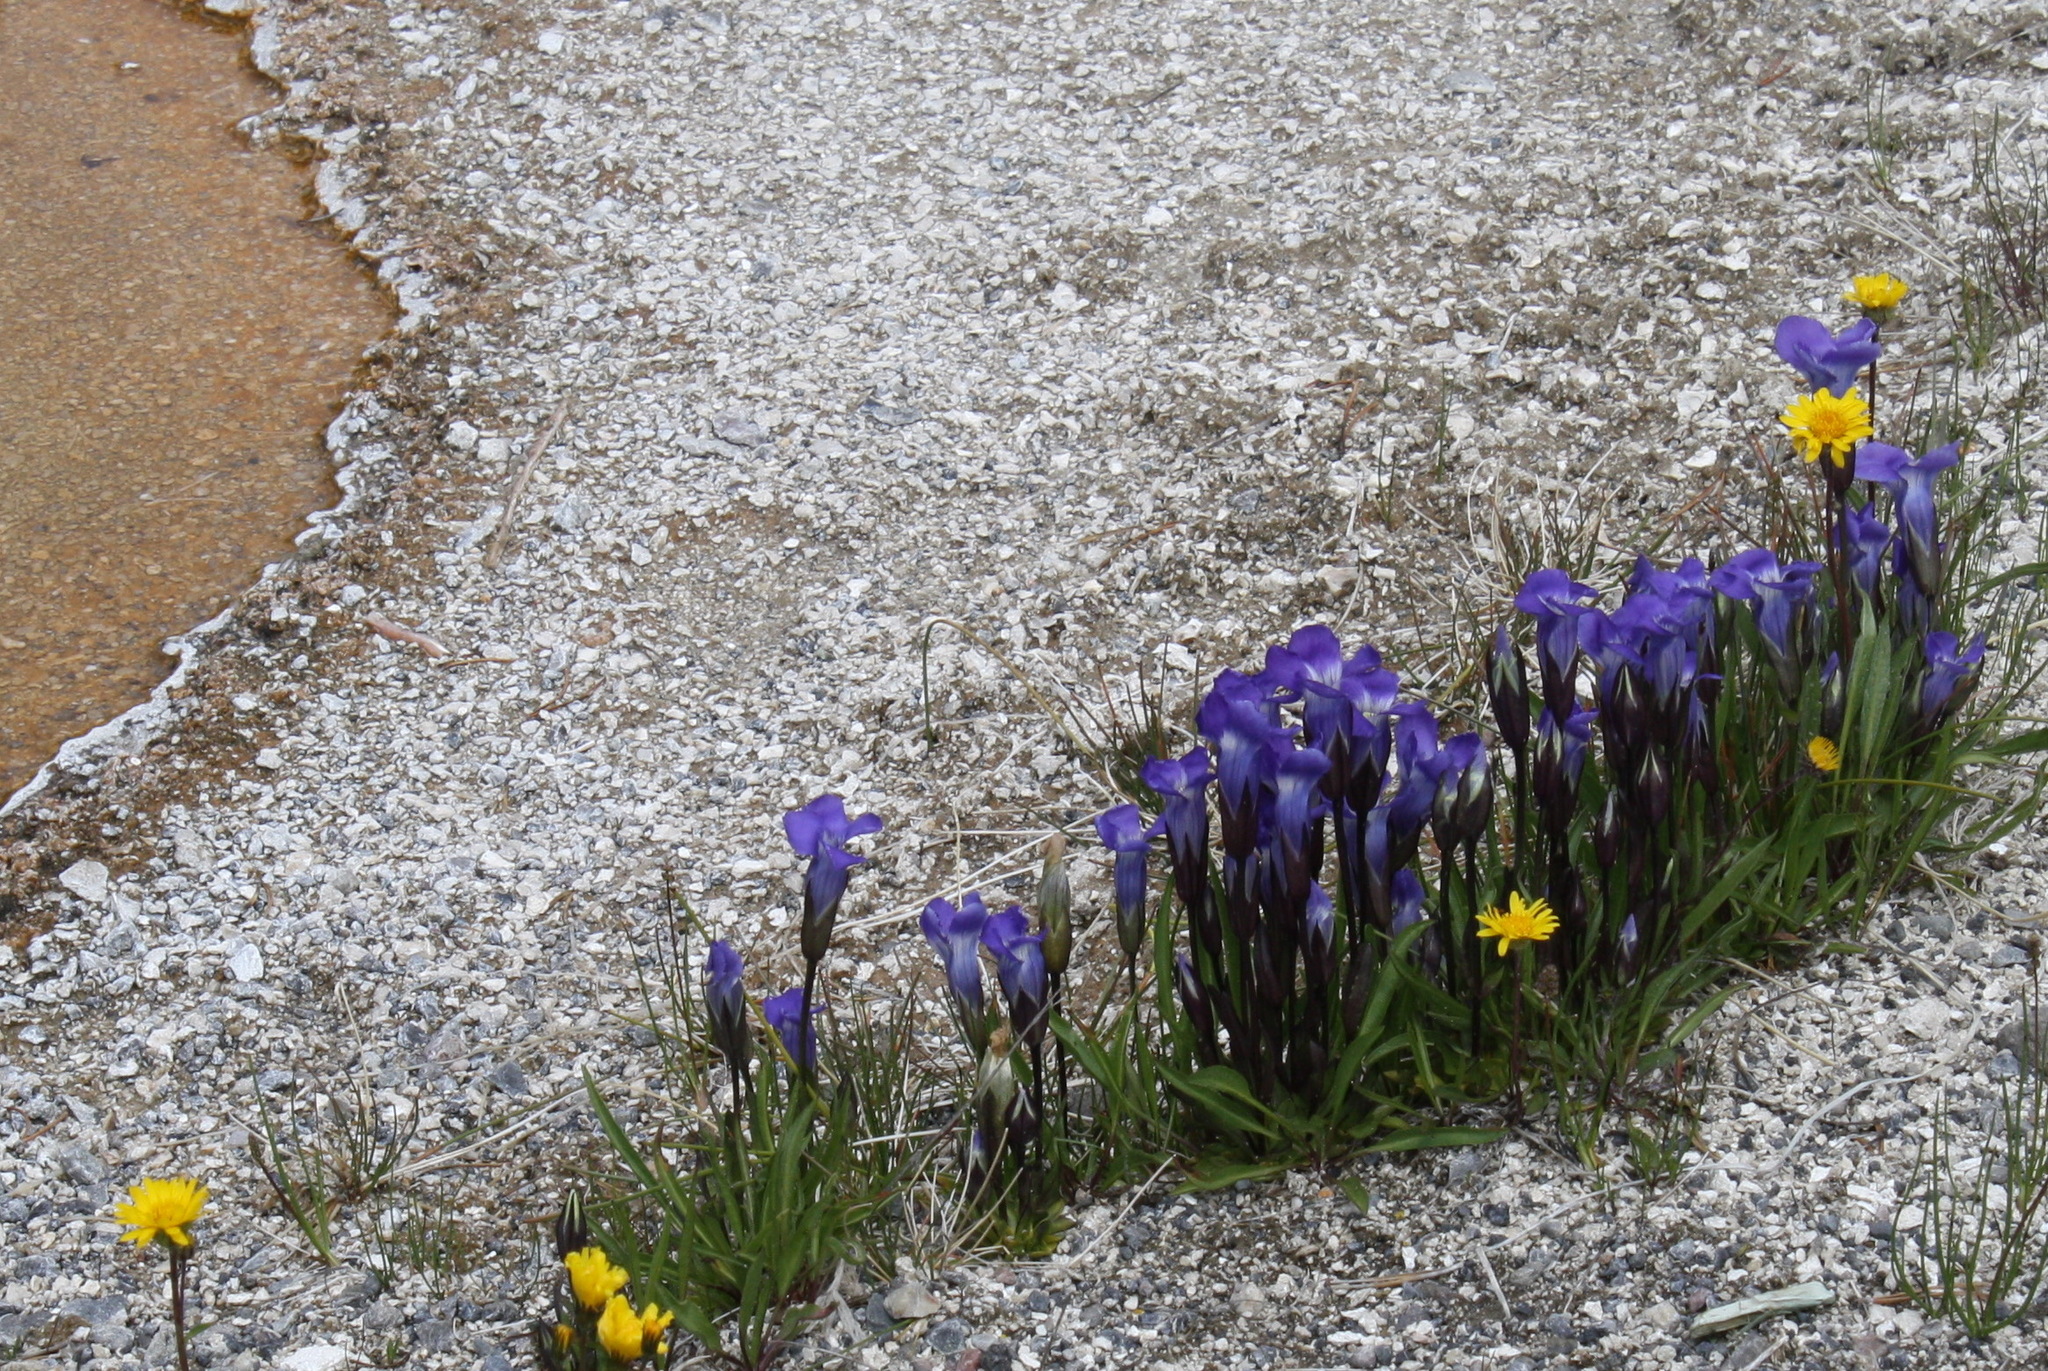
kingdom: Plantae
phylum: Tracheophyta
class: Magnoliopsida
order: Gentianales
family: Gentianaceae
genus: Gentianopsis
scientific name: Gentianopsis thermalis
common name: Rocky mountain fringed-gentian
